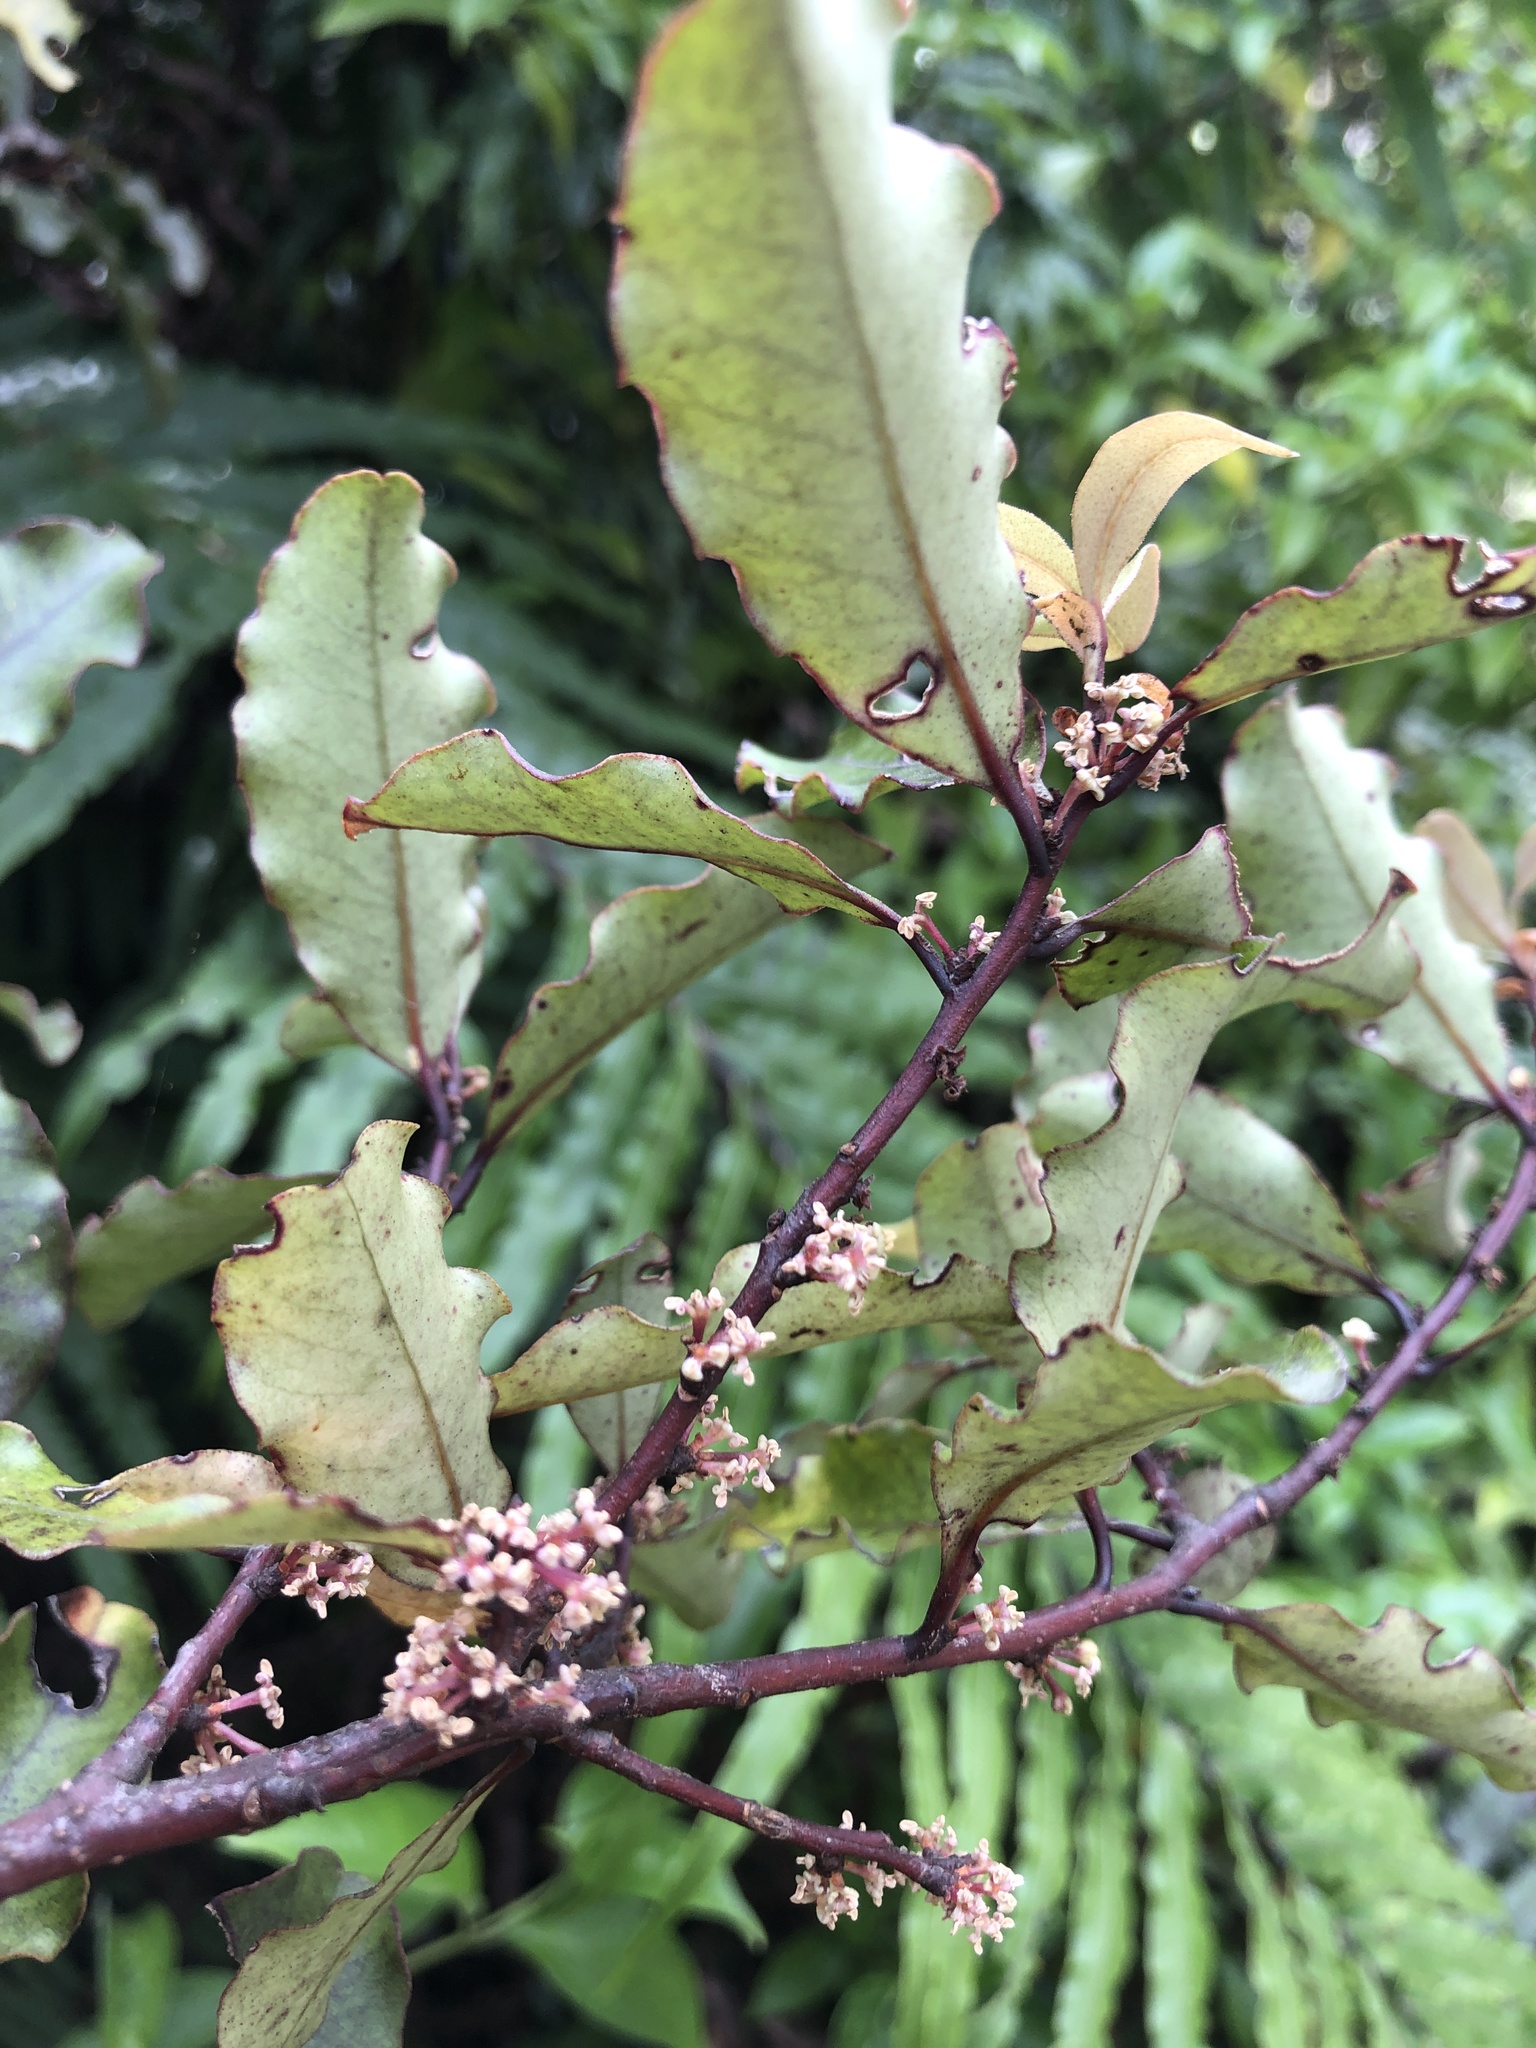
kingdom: Plantae
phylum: Tracheophyta
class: Magnoliopsida
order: Ericales
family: Primulaceae
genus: Myrsine
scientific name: Myrsine australis
